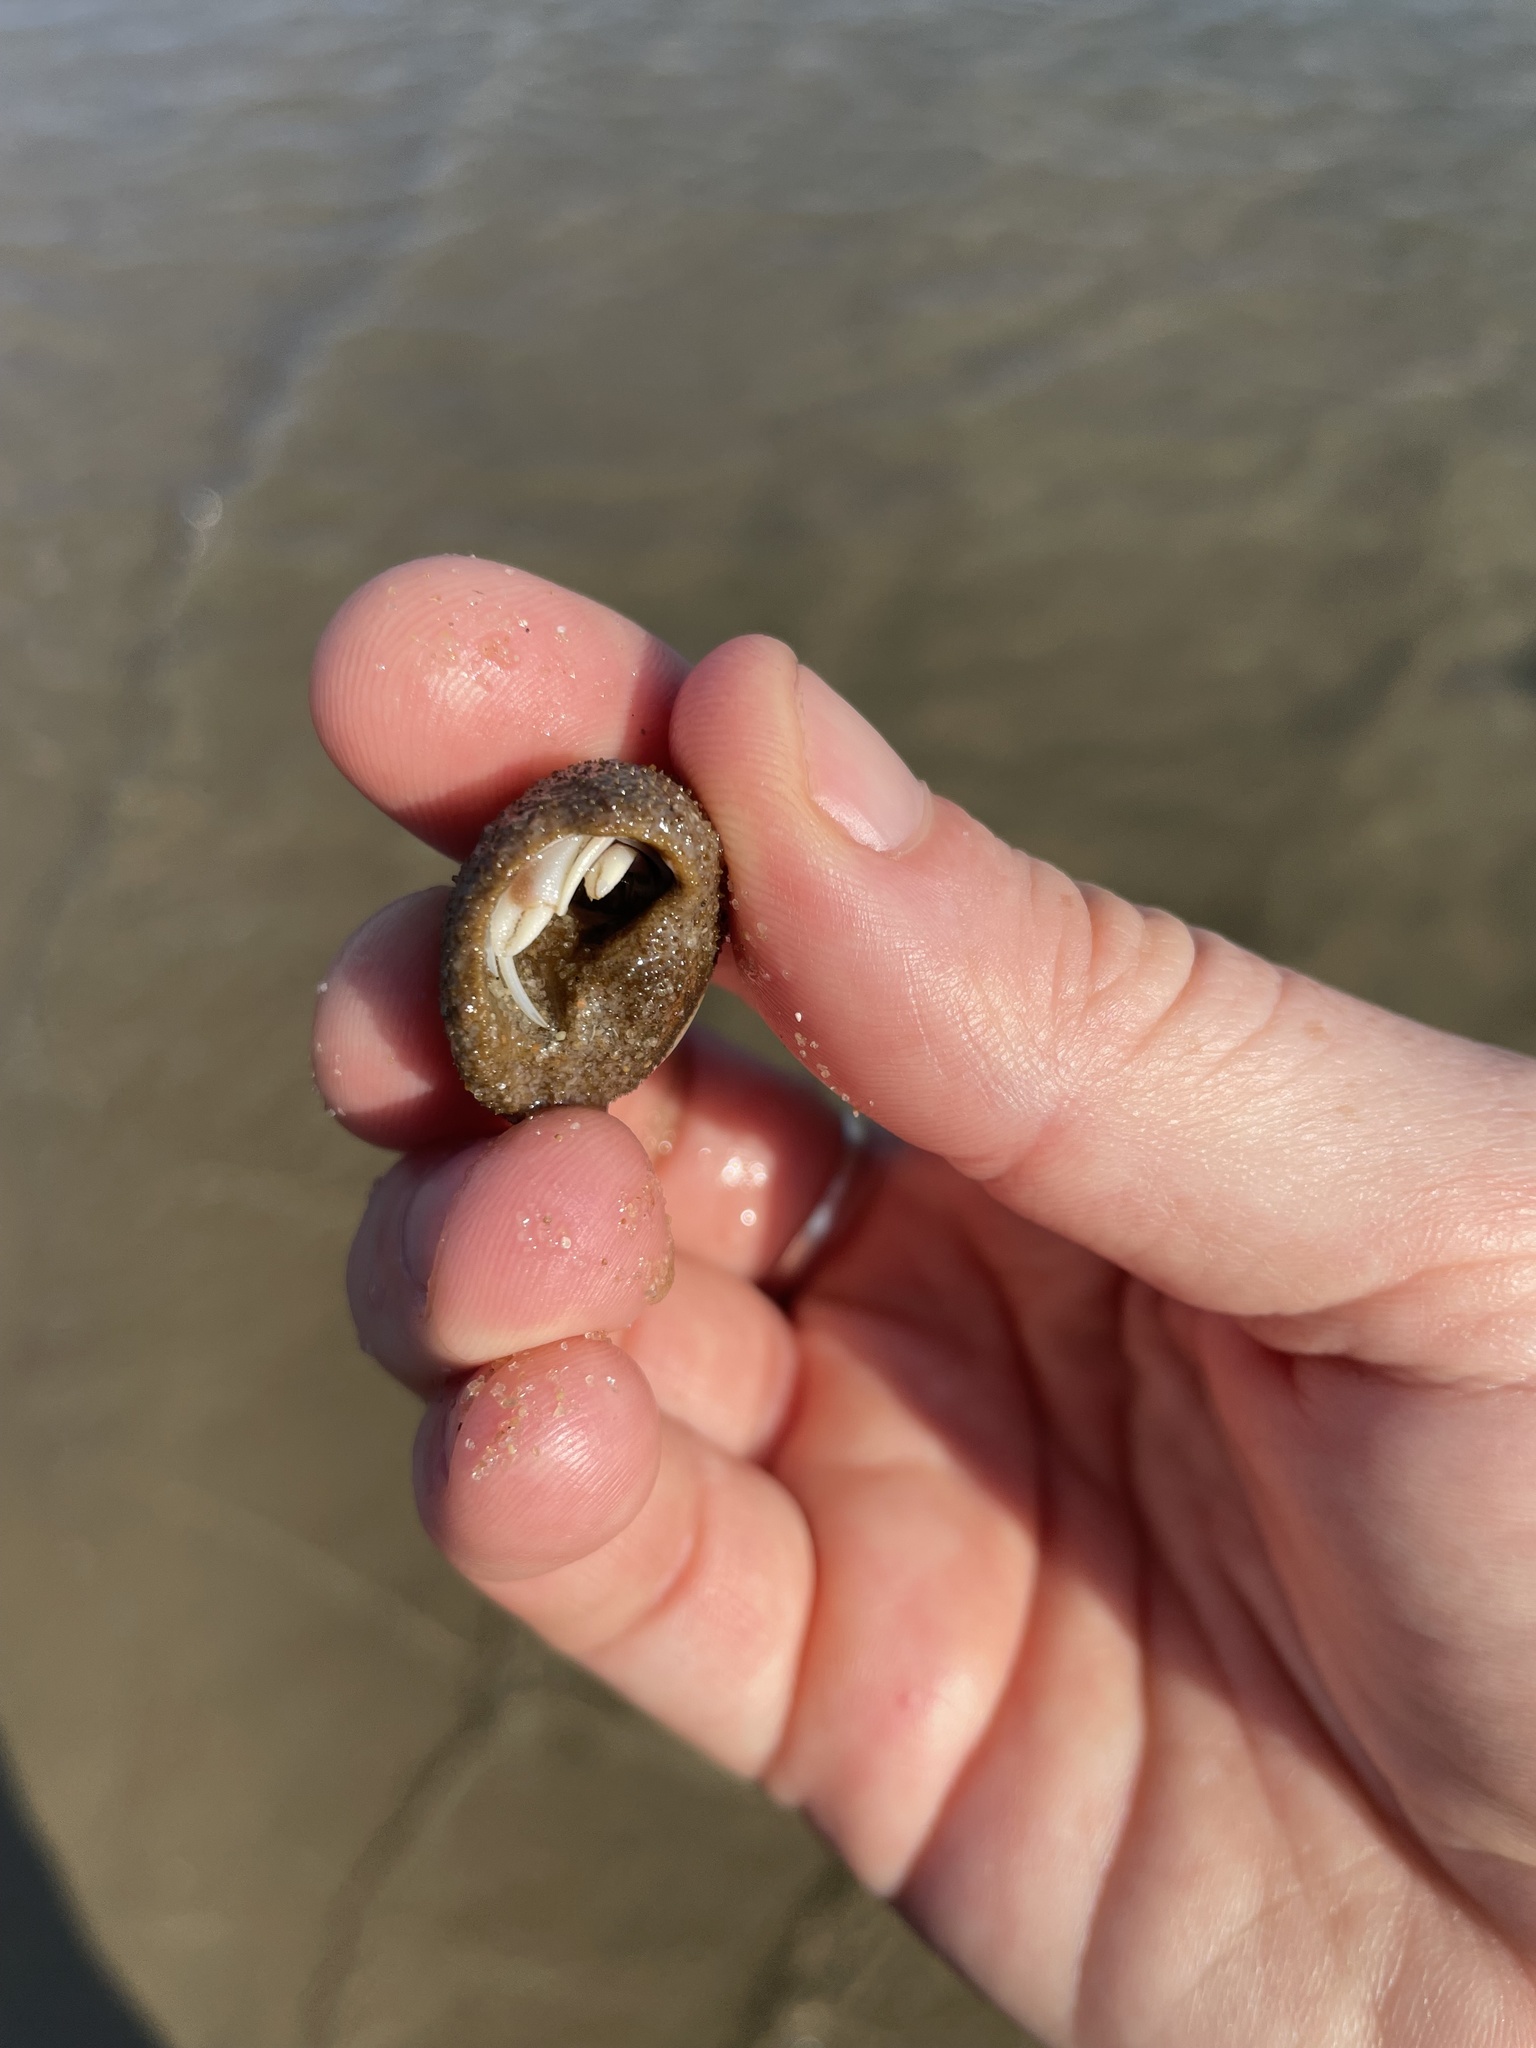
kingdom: Animalia
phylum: Arthropoda
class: Malacostraca
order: Decapoda
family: Paguridae
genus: Pagurus
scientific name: Pagurus longicarpus
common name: Long-armed hermit crab
